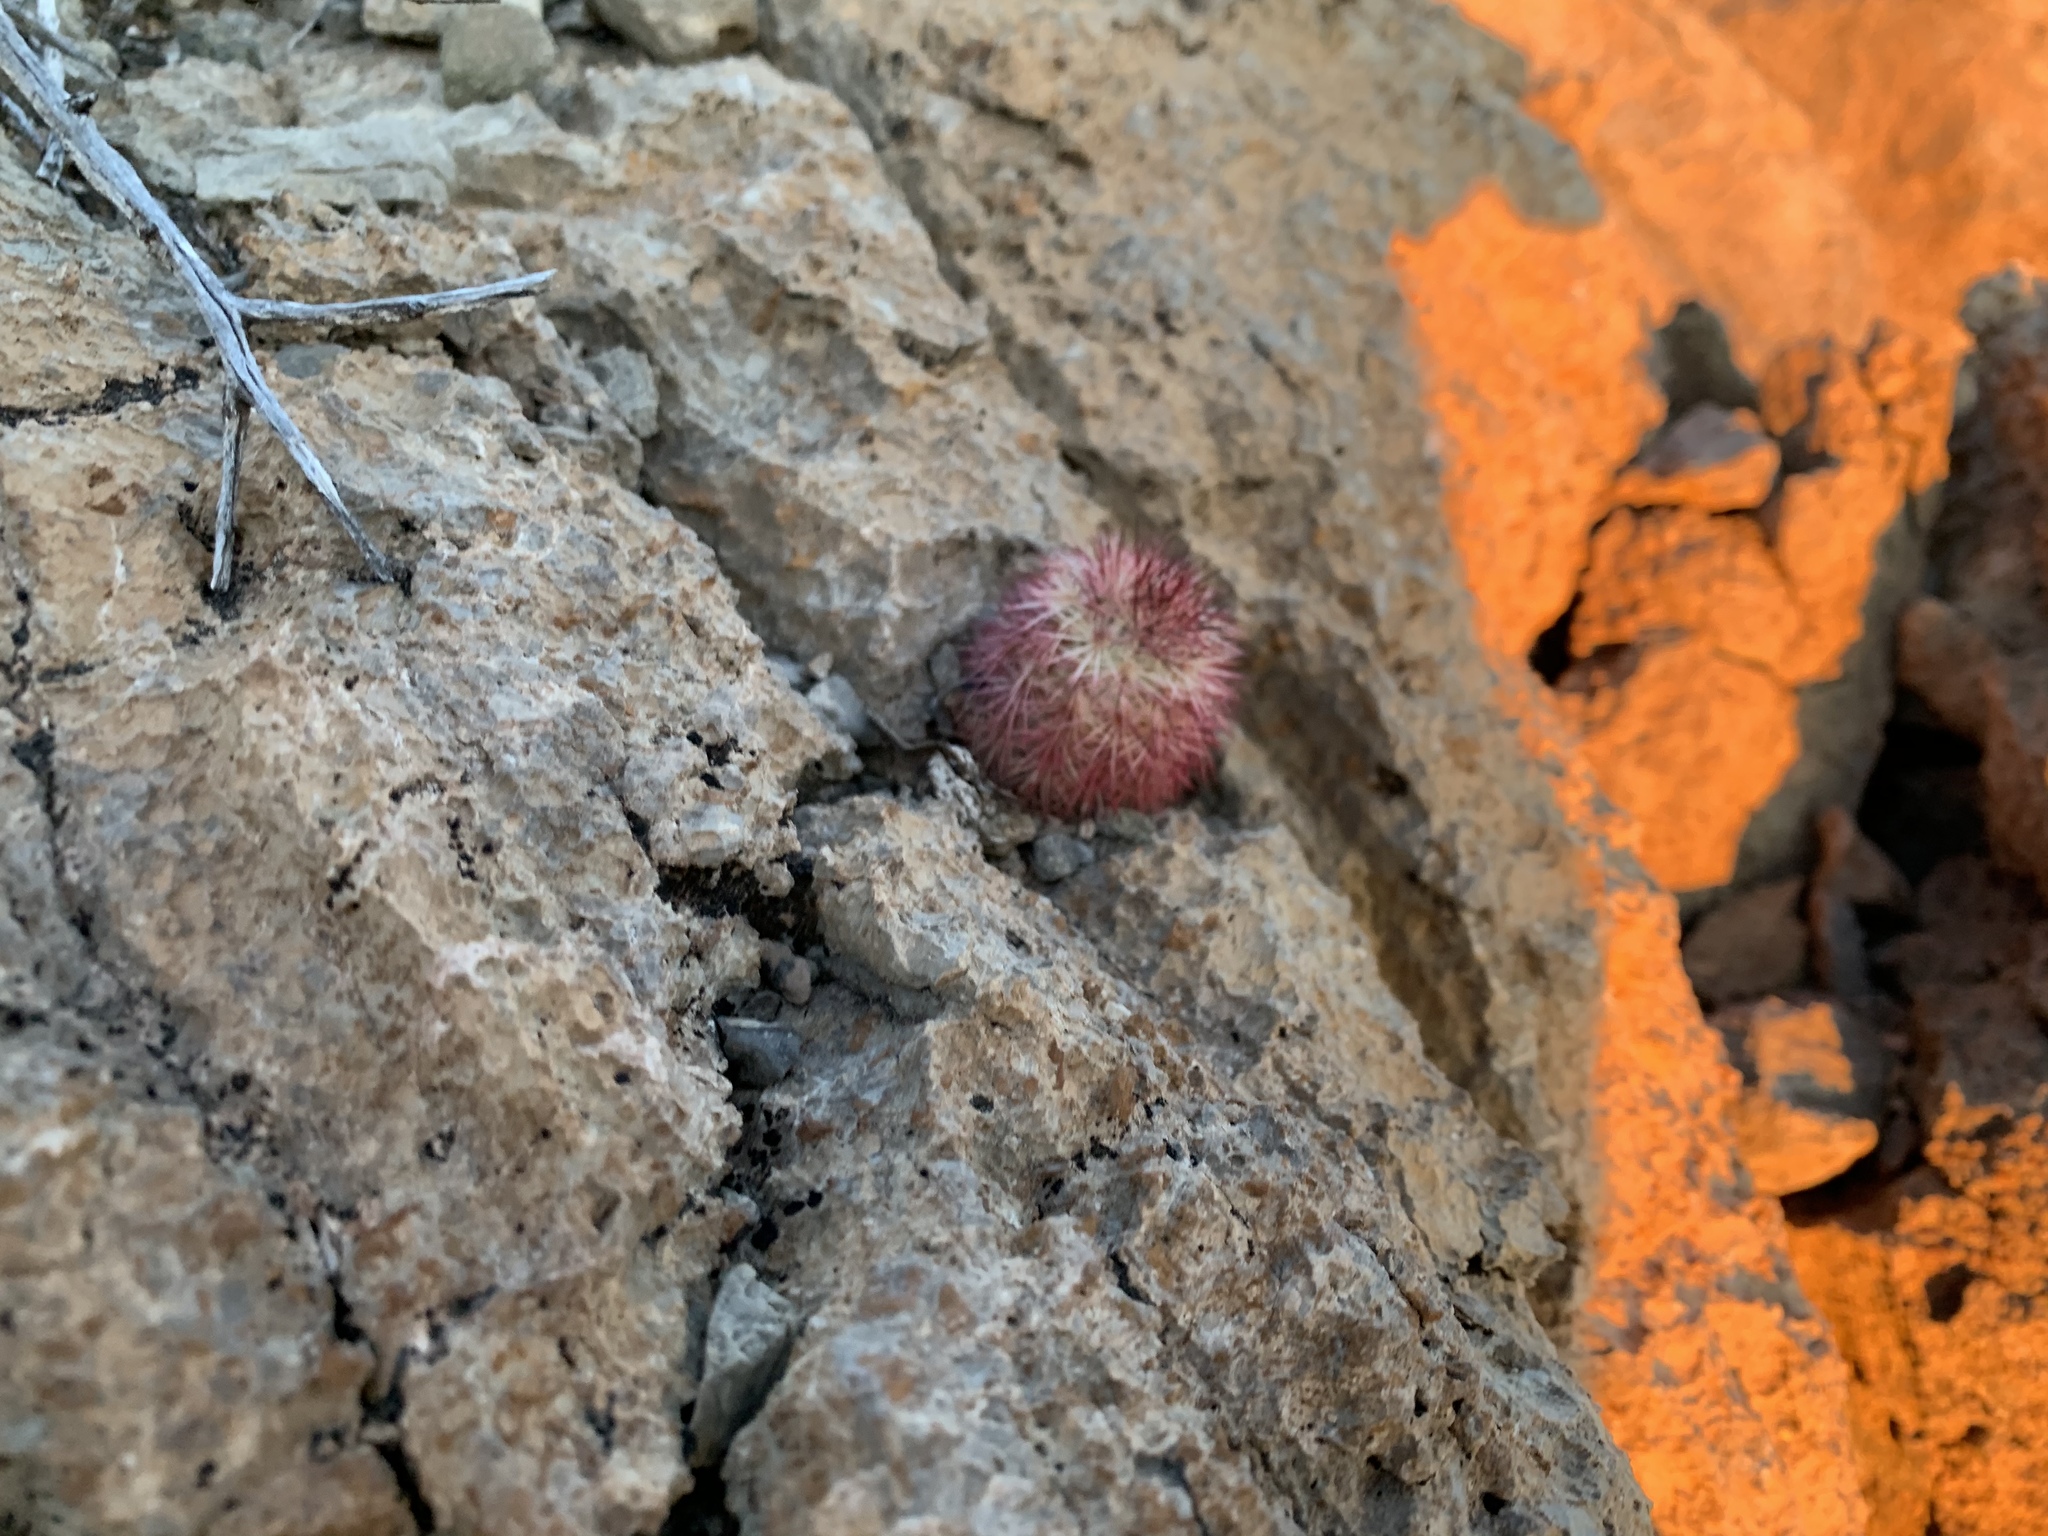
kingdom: Plantae
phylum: Tracheophyta
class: Magnoliopsida
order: Caryophyllales
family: Cactaceae
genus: Echinocereus
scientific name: Echinocereus dasyacanthus
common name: Spiny hedgehog cactus
